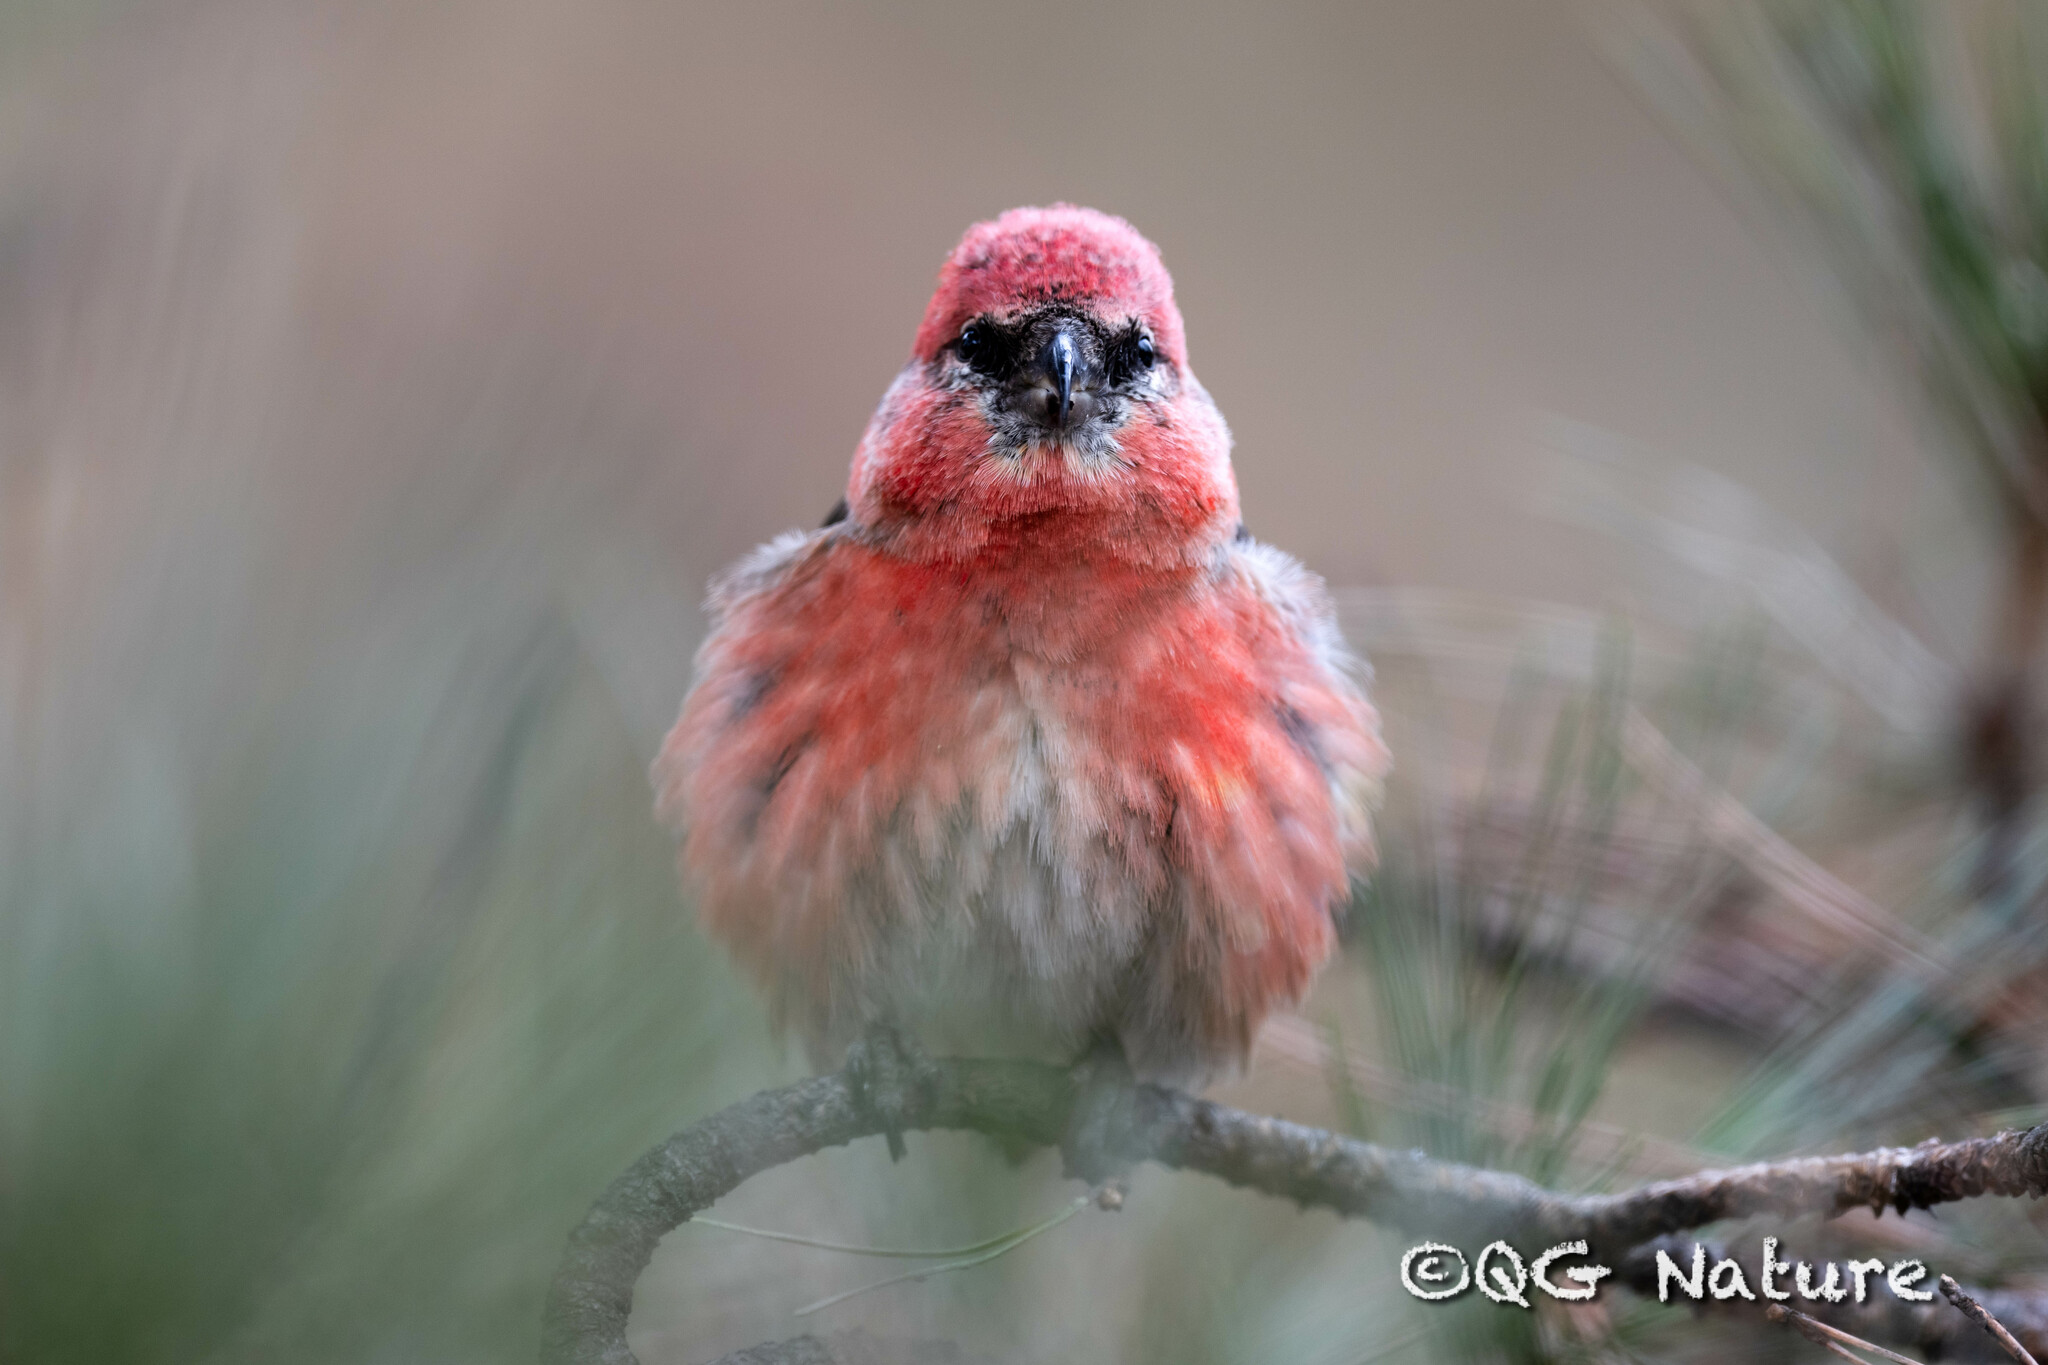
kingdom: Animalia
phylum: Chordata
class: Aves
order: Passeriformes
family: Fringillidae
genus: Loxia
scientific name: Loxia leucoptera
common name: Two-barred crossbill
